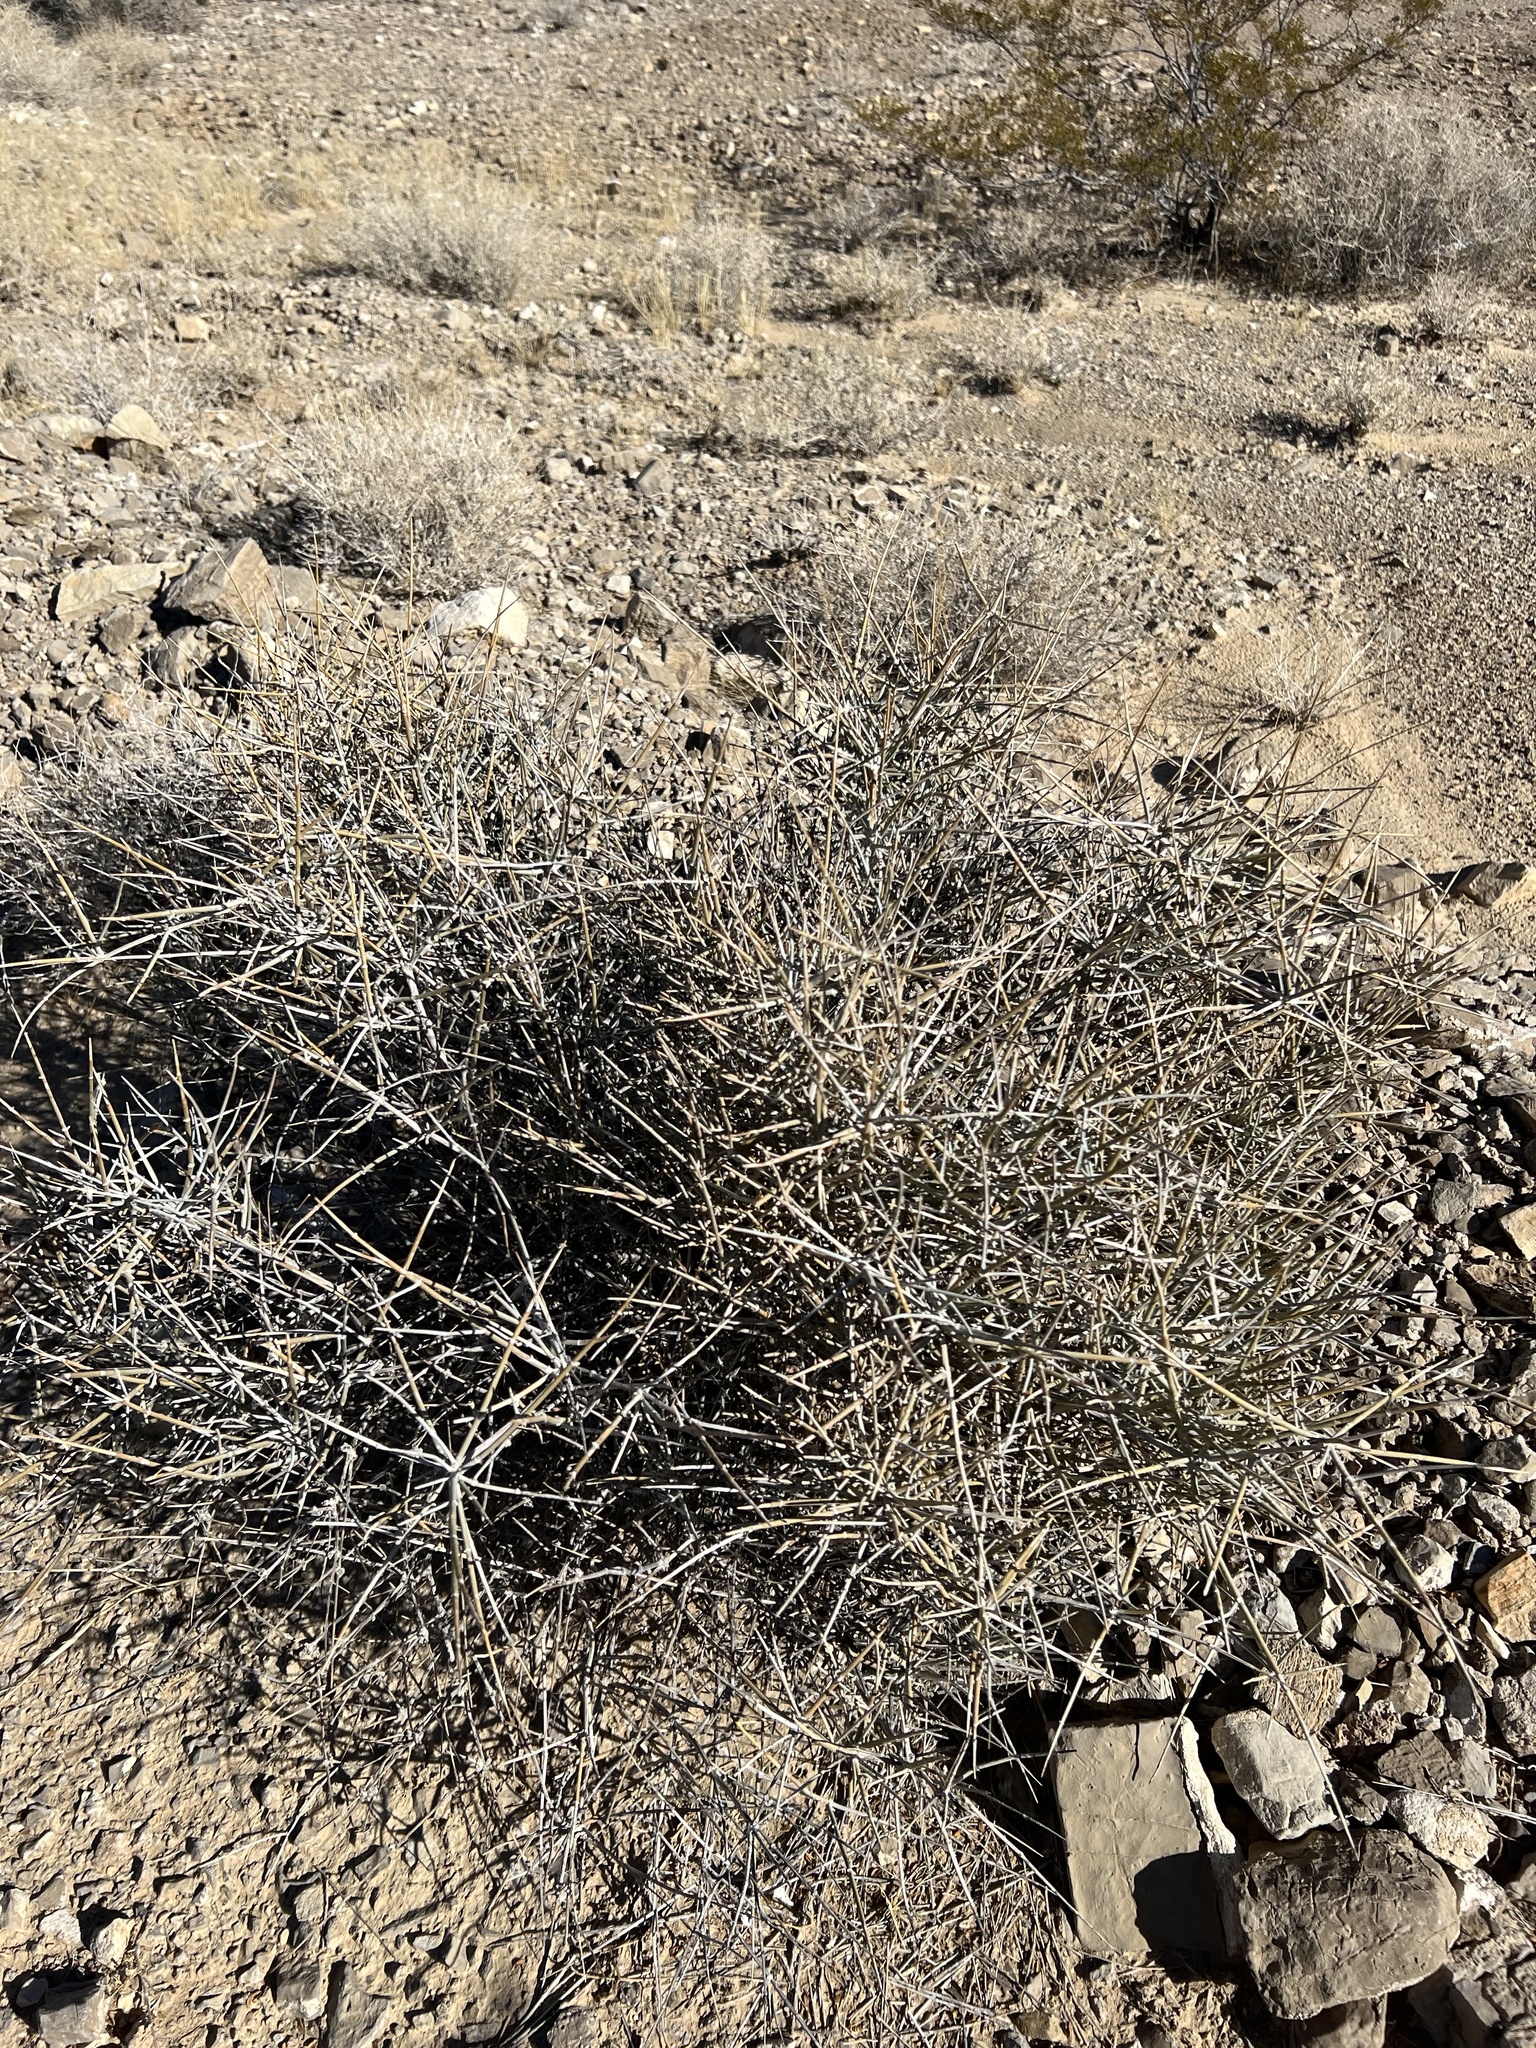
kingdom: Plantae
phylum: Tracheophyta
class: Gnetopsida
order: Ephedrales
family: Ephedraceae
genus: Ephedra
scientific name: Ephedra nevadensis
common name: Gray ephedra
